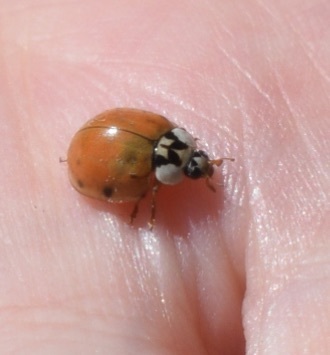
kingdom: Animalia
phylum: Arthropoda
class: Insecta
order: Coleoptera
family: Coccinellidae
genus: Harmonia
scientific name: Harmonia axyridis
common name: Harlequin ladybird
